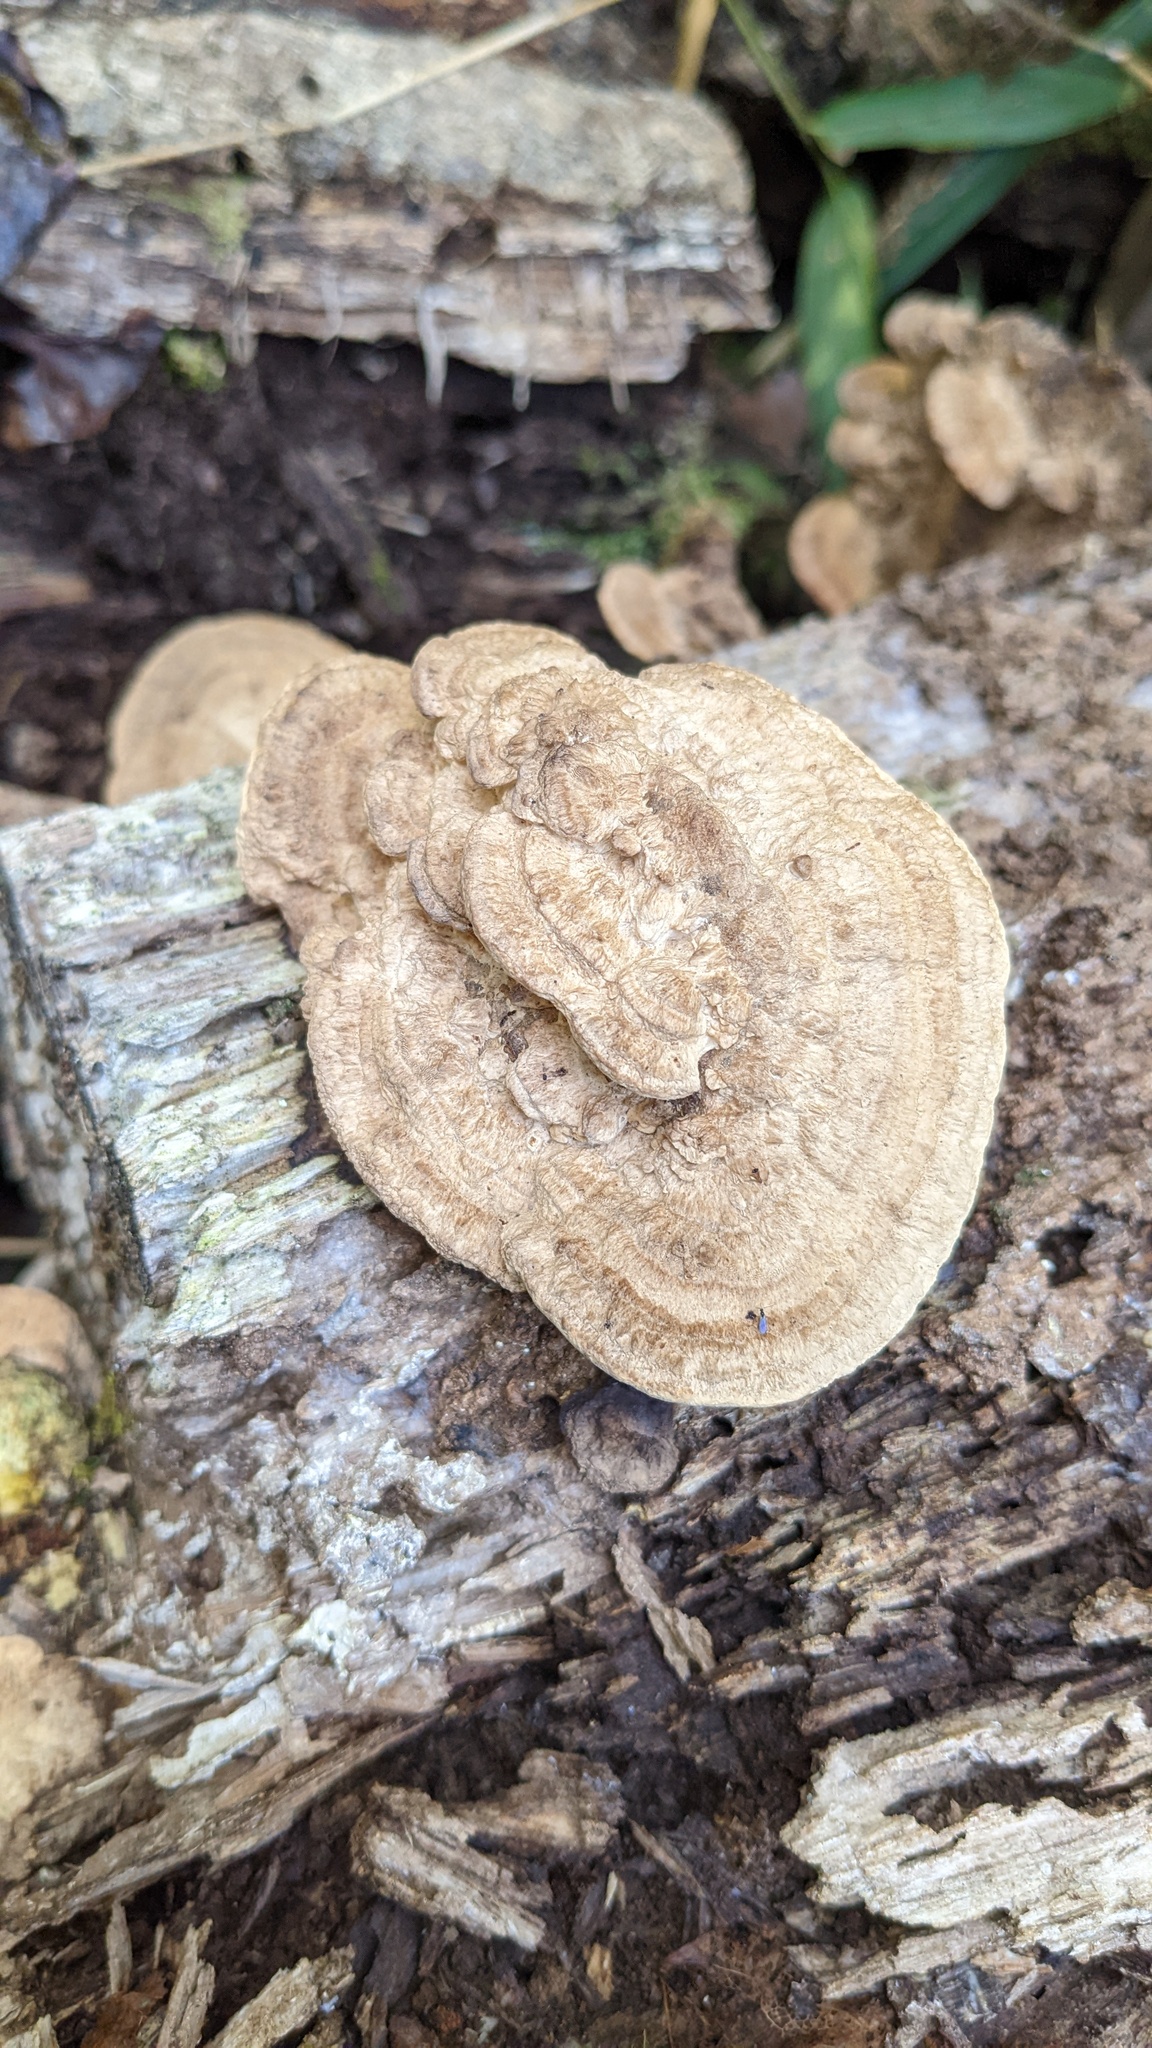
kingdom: Fungi
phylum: Basidiomycota
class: Agaricomycetes
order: Polyporales
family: Fomitopsidaceae
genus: Fomitopsis
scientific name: Fomitopsis
